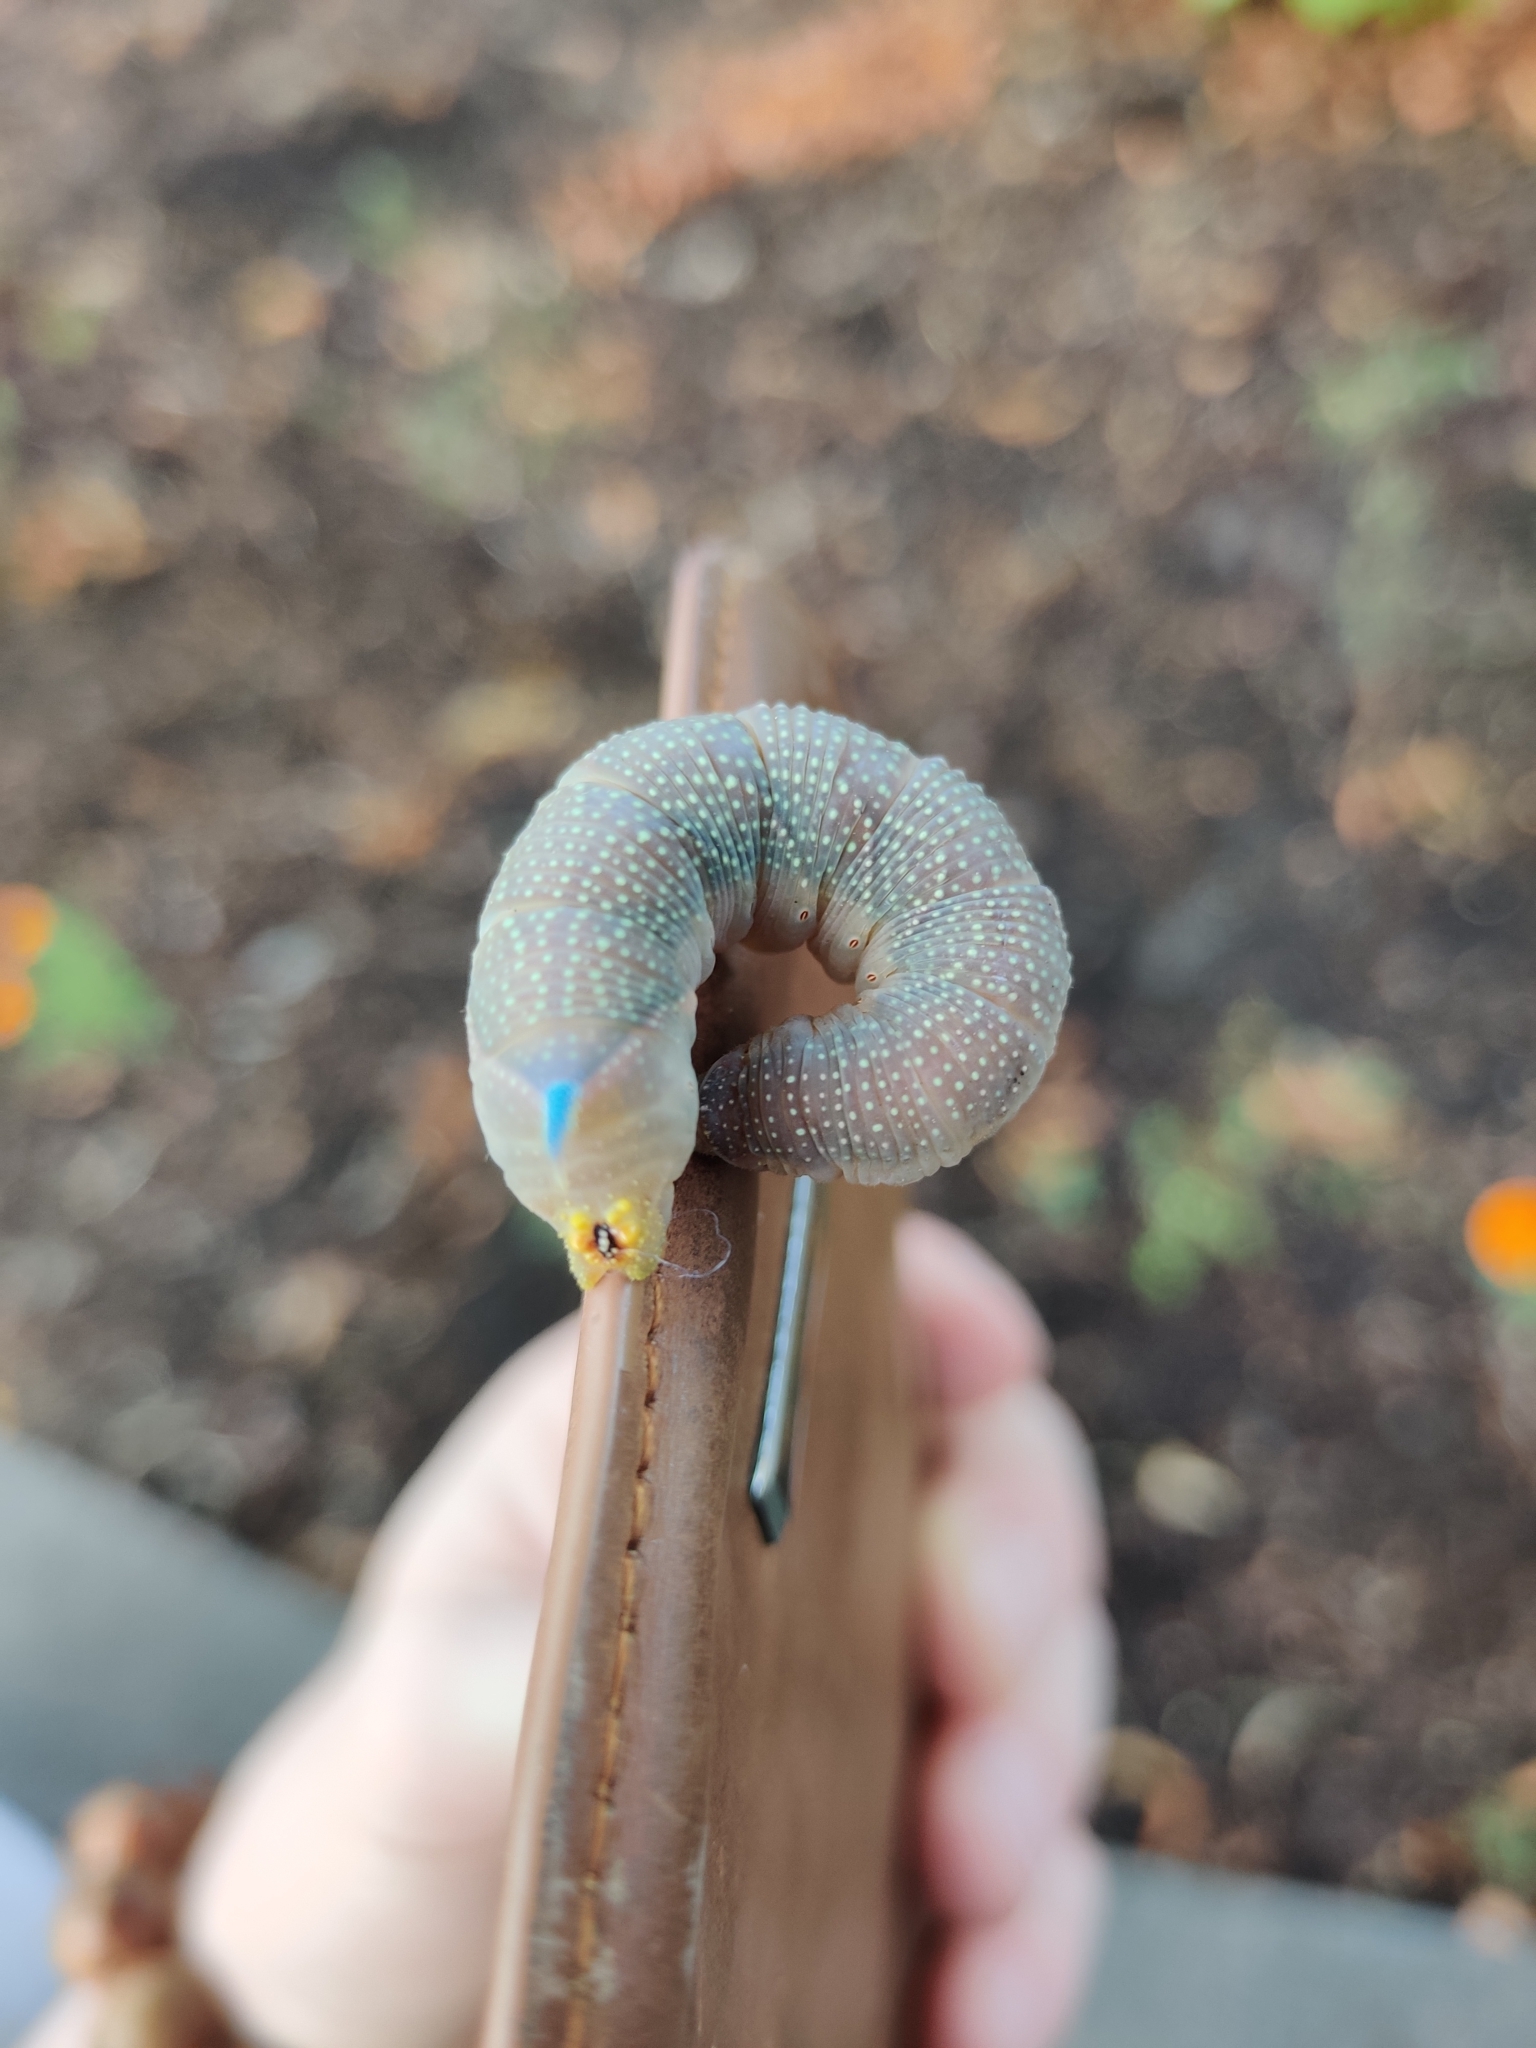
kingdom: Animalia
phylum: Arthropoda
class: Insecta
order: Lepidoptera
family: Sphingidae
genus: Mimas
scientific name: Mimas tiliae
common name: Lime hawk-moth
